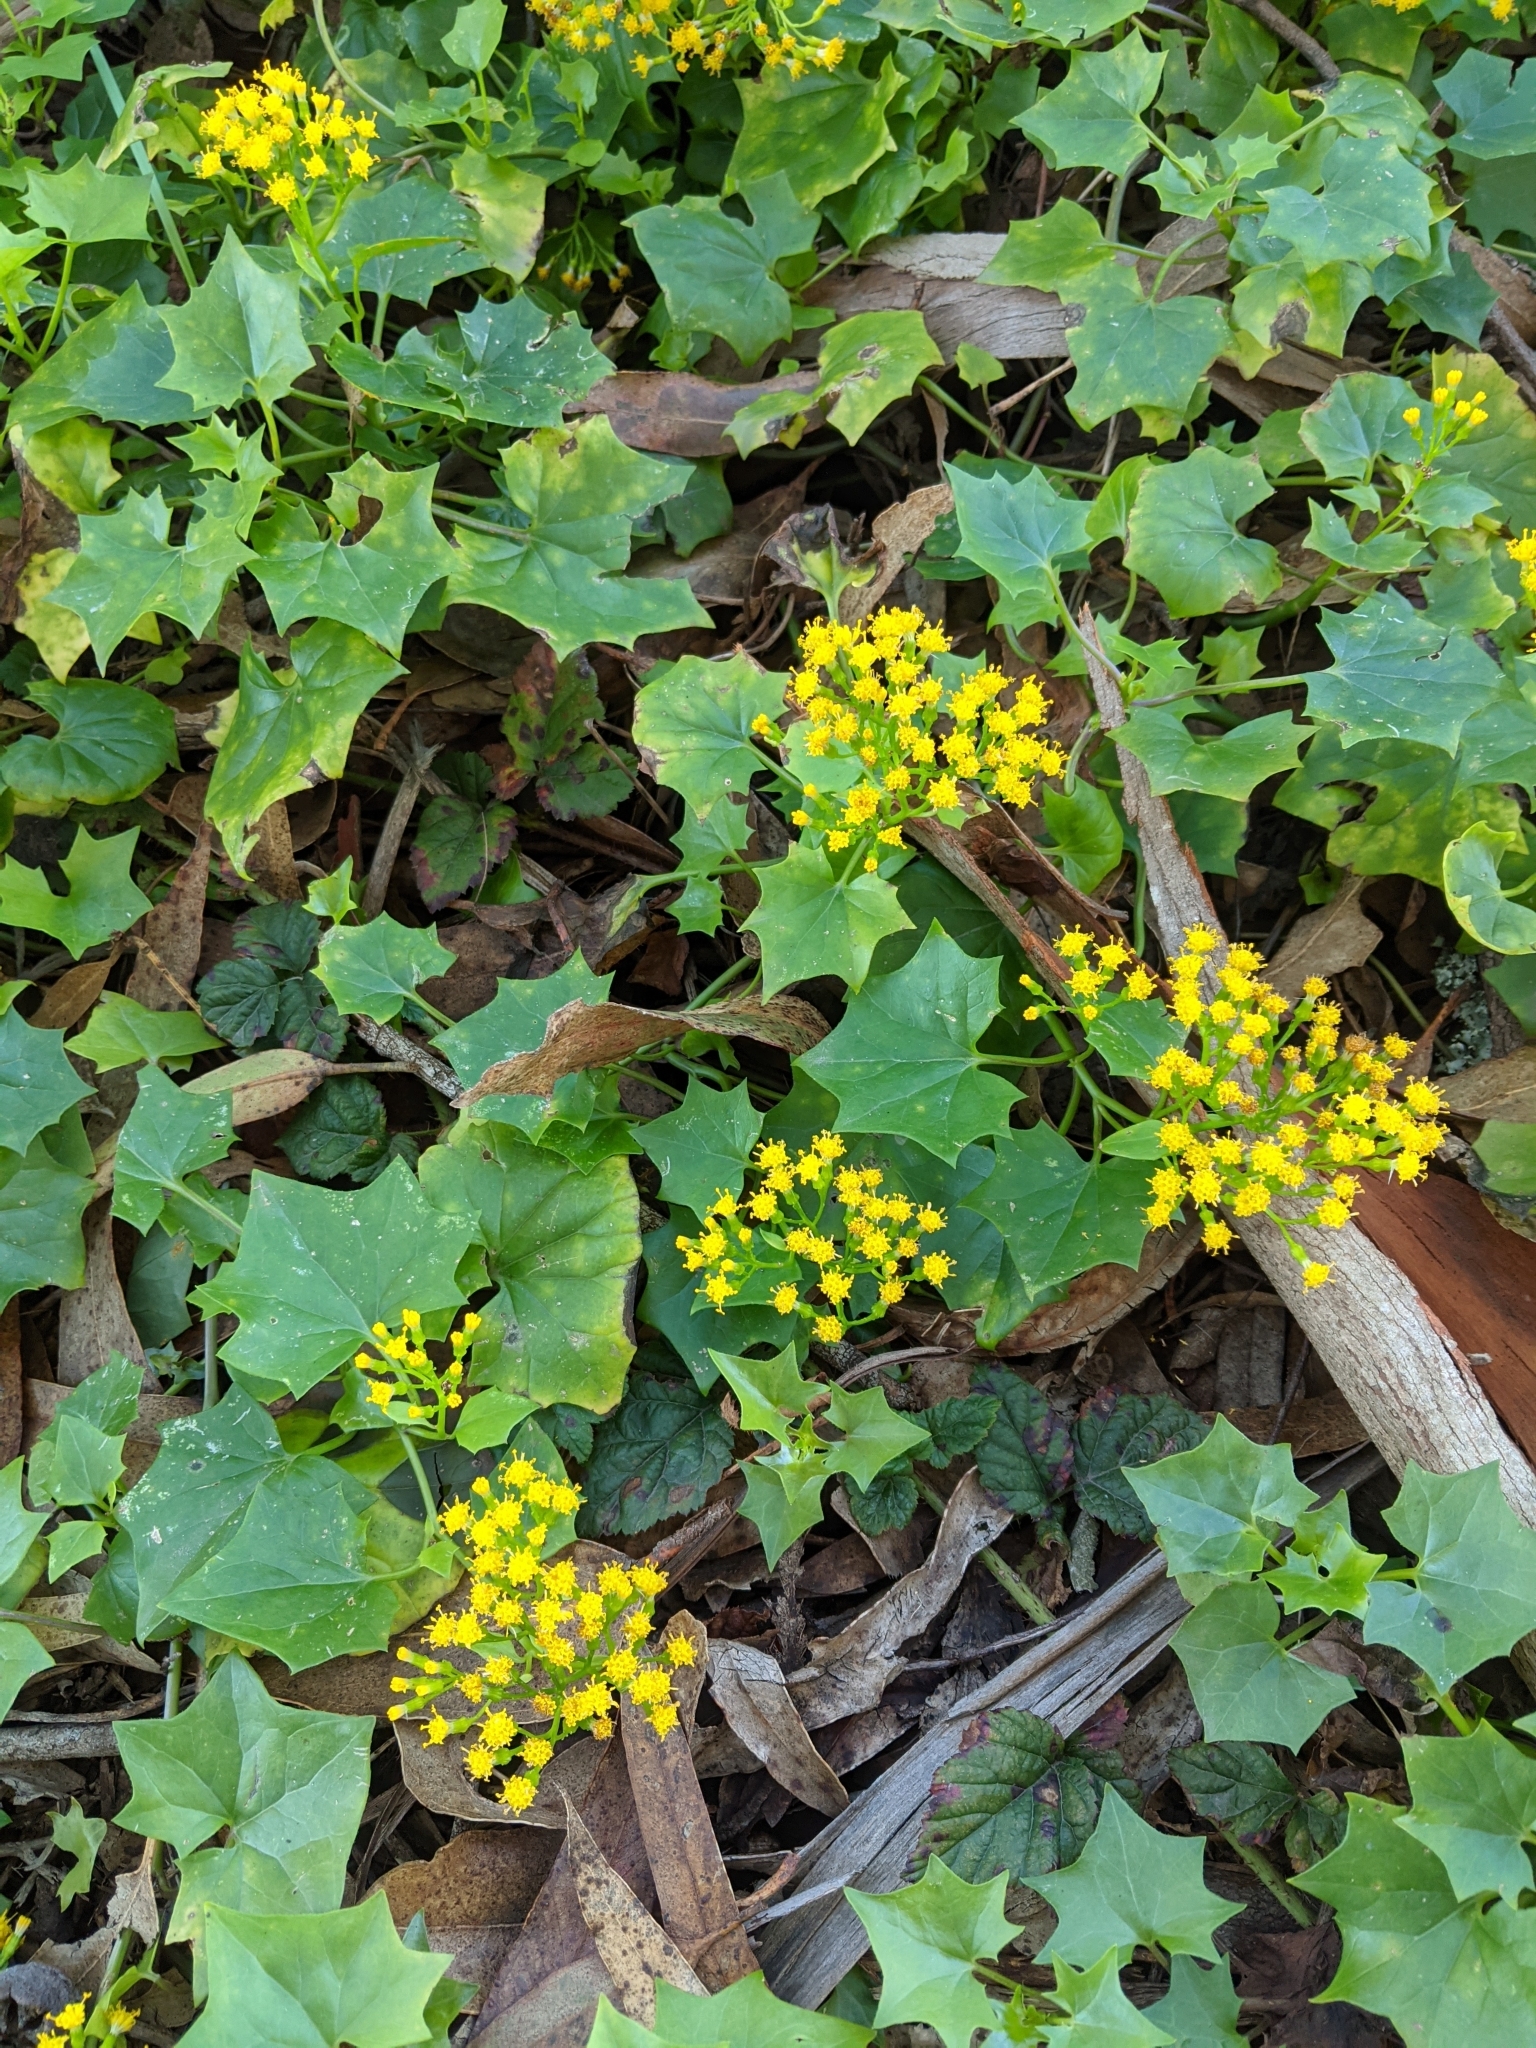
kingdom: Plantae
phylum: Tracheophyta
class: Magnoliopsida
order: Asterales
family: Asteraceae
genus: Delairea
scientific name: Delairea odorata
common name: Cape-ivy
